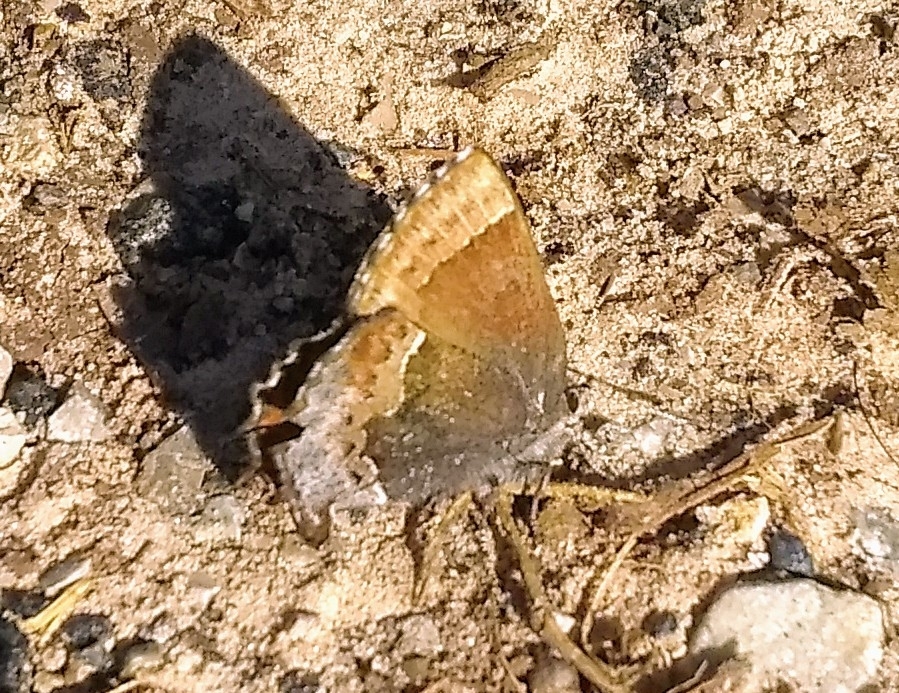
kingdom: Animalia
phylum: Arthropoda
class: Insecta
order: Lepidoptera
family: Lycaenidae
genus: Incisalia
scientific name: Incisalia henrici
